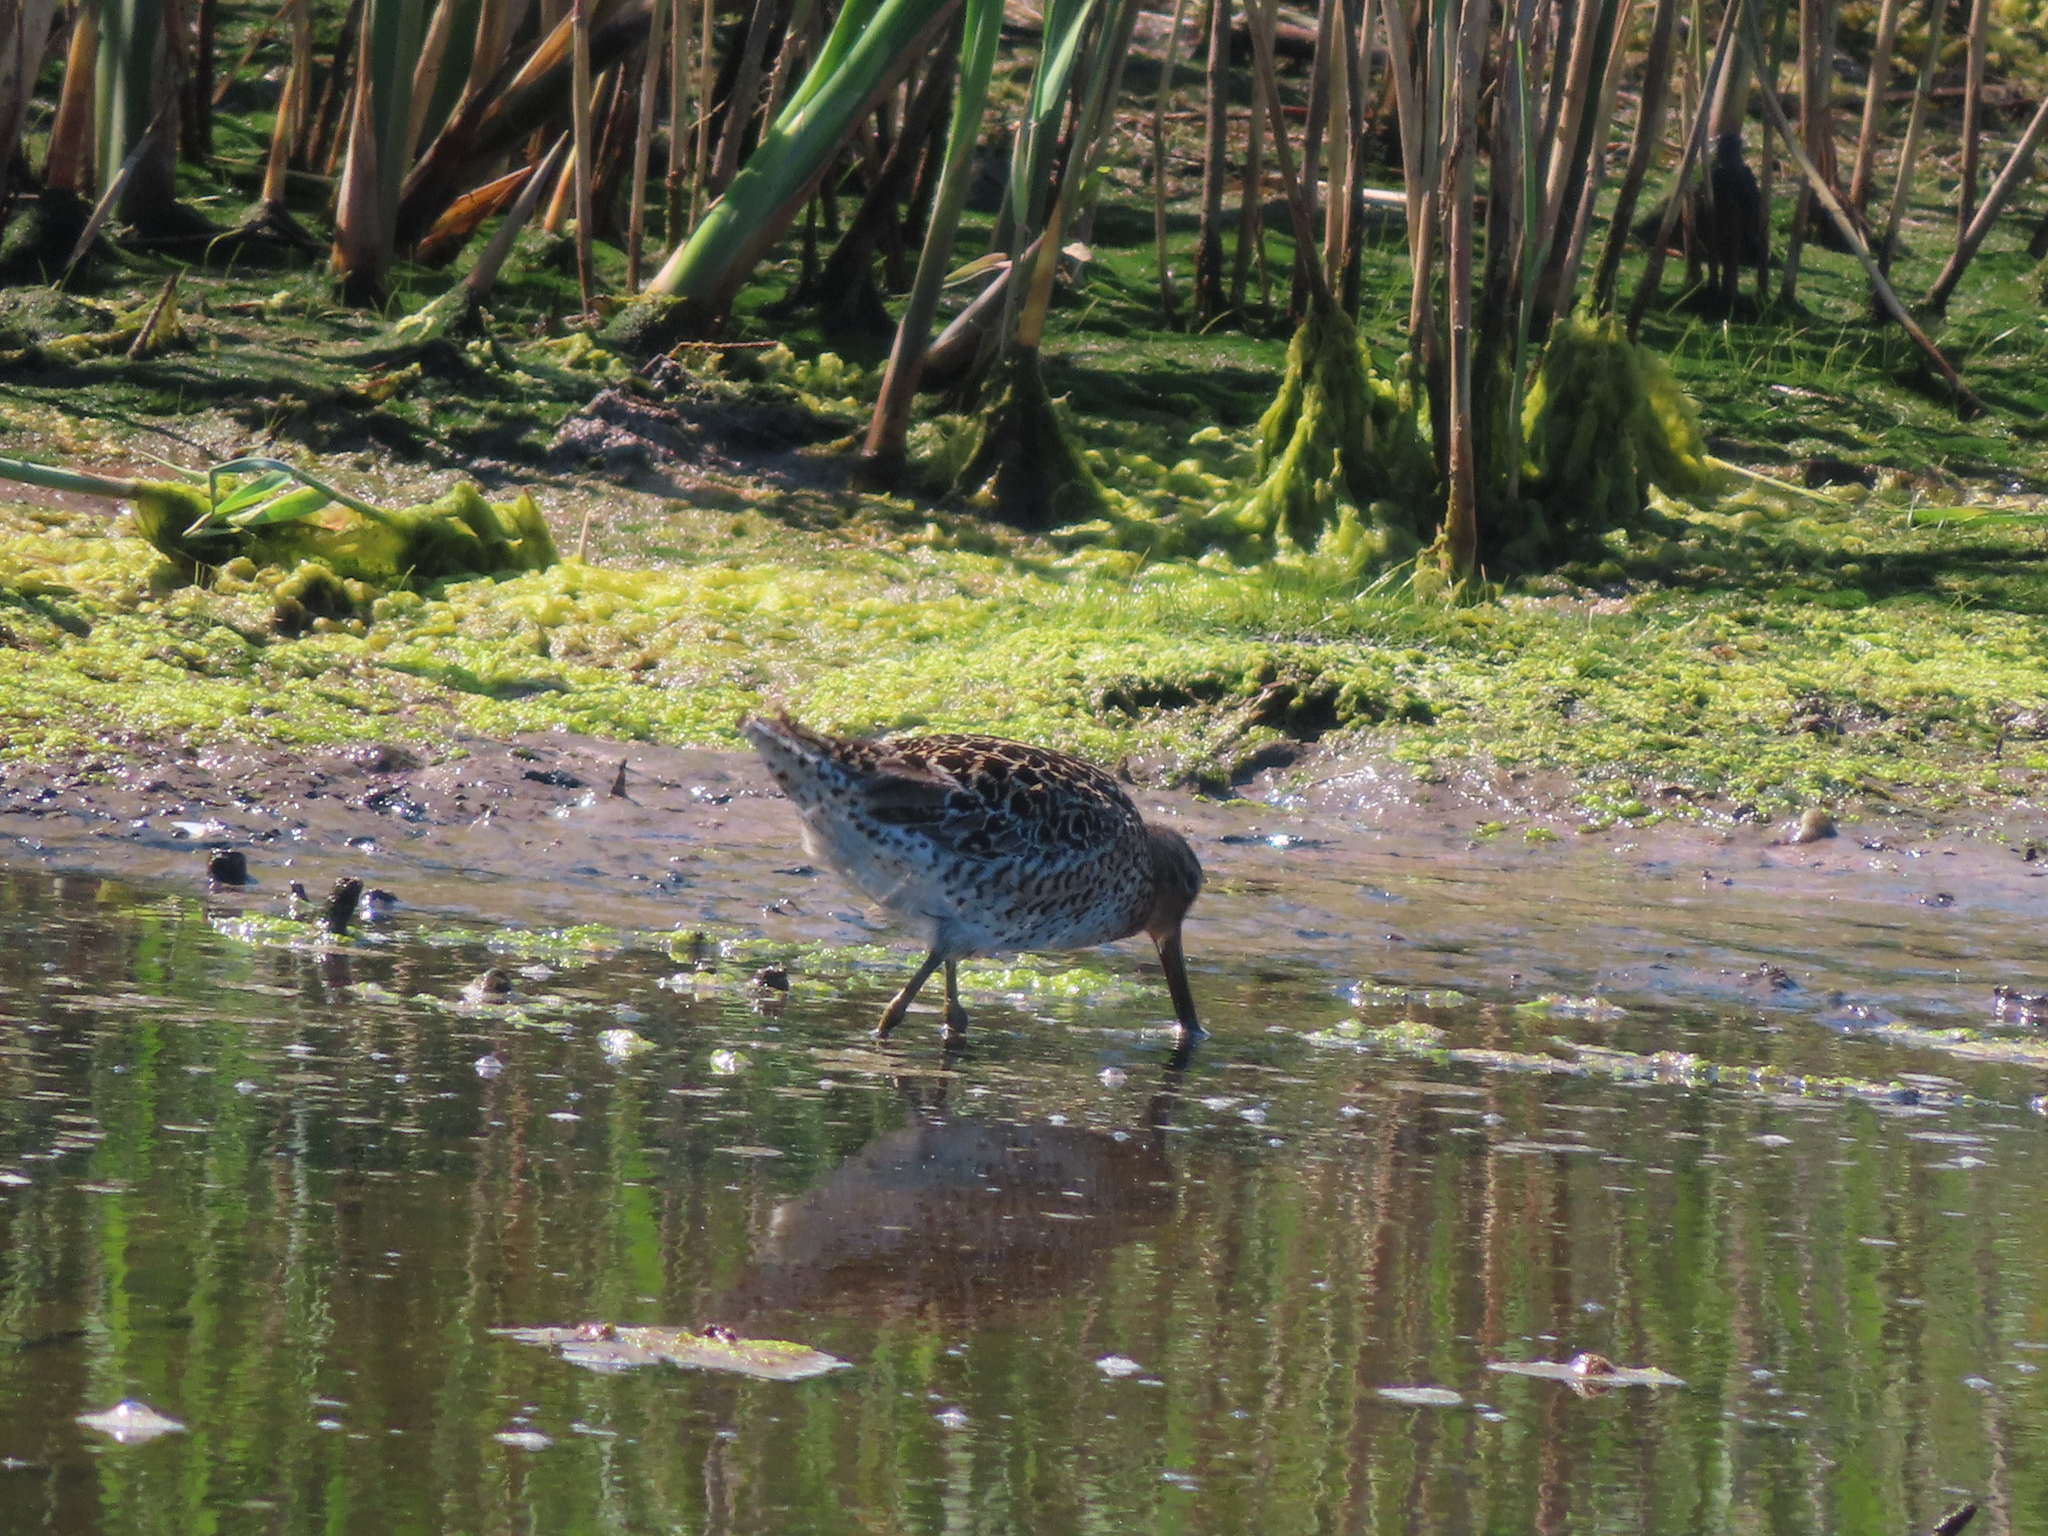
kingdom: Animalia
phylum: Chordata
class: Aves
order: Charadriiformes
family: Scolopacidae
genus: Limnodromus
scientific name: Limnodromus griseus
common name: Short-billed dowitcher
